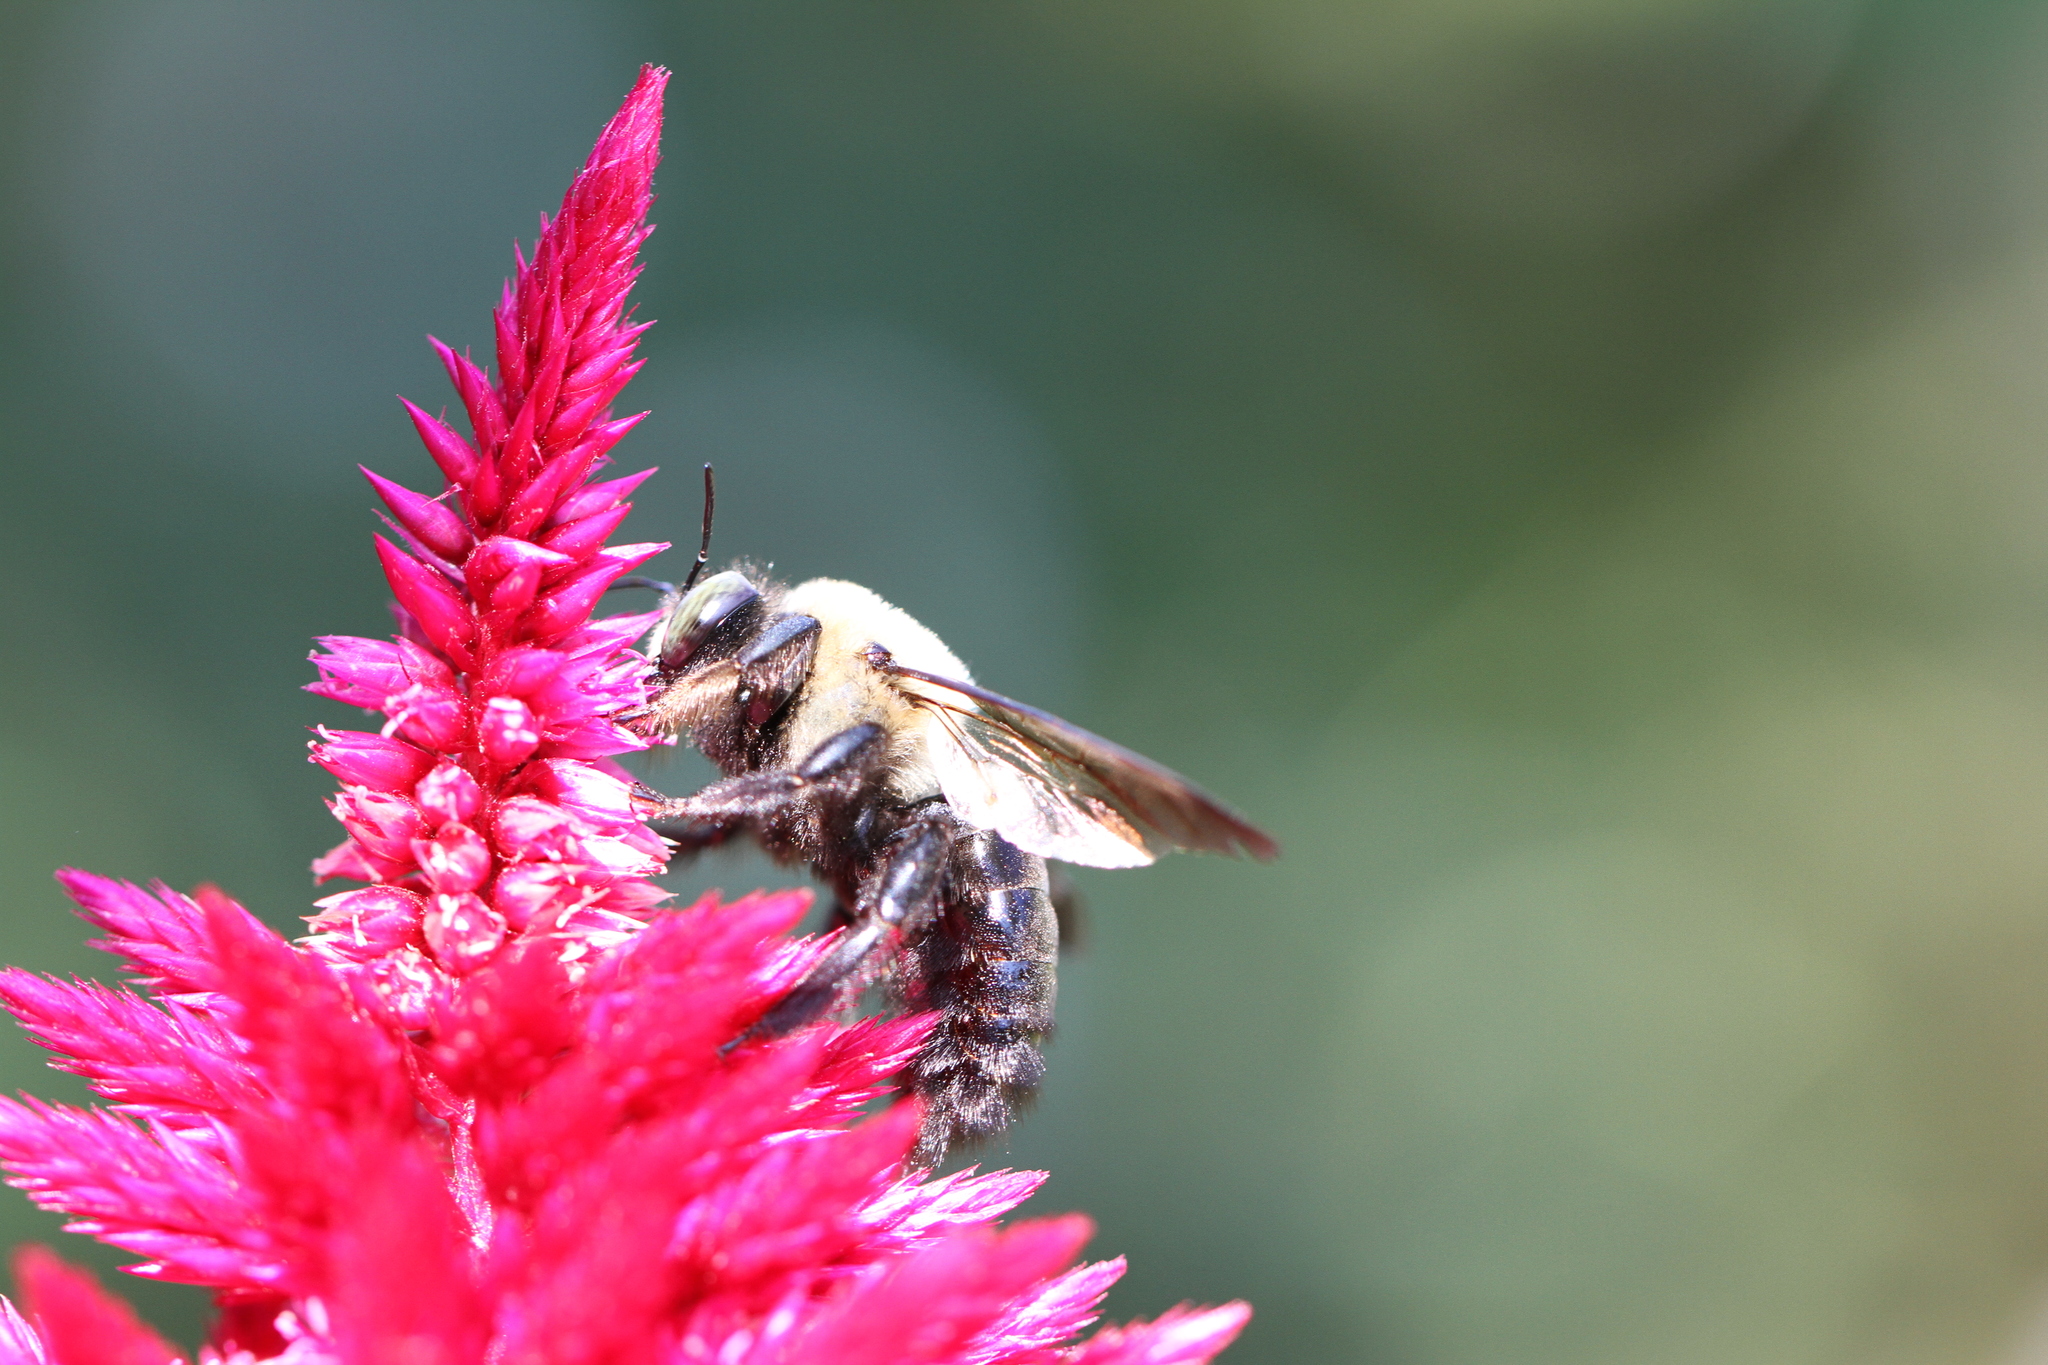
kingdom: Animalia
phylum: Arthropoda
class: Insecta
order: Hymenoptera
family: Apidae
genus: Xylocopa
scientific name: Xylocopa virginica
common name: Carpenter bee
